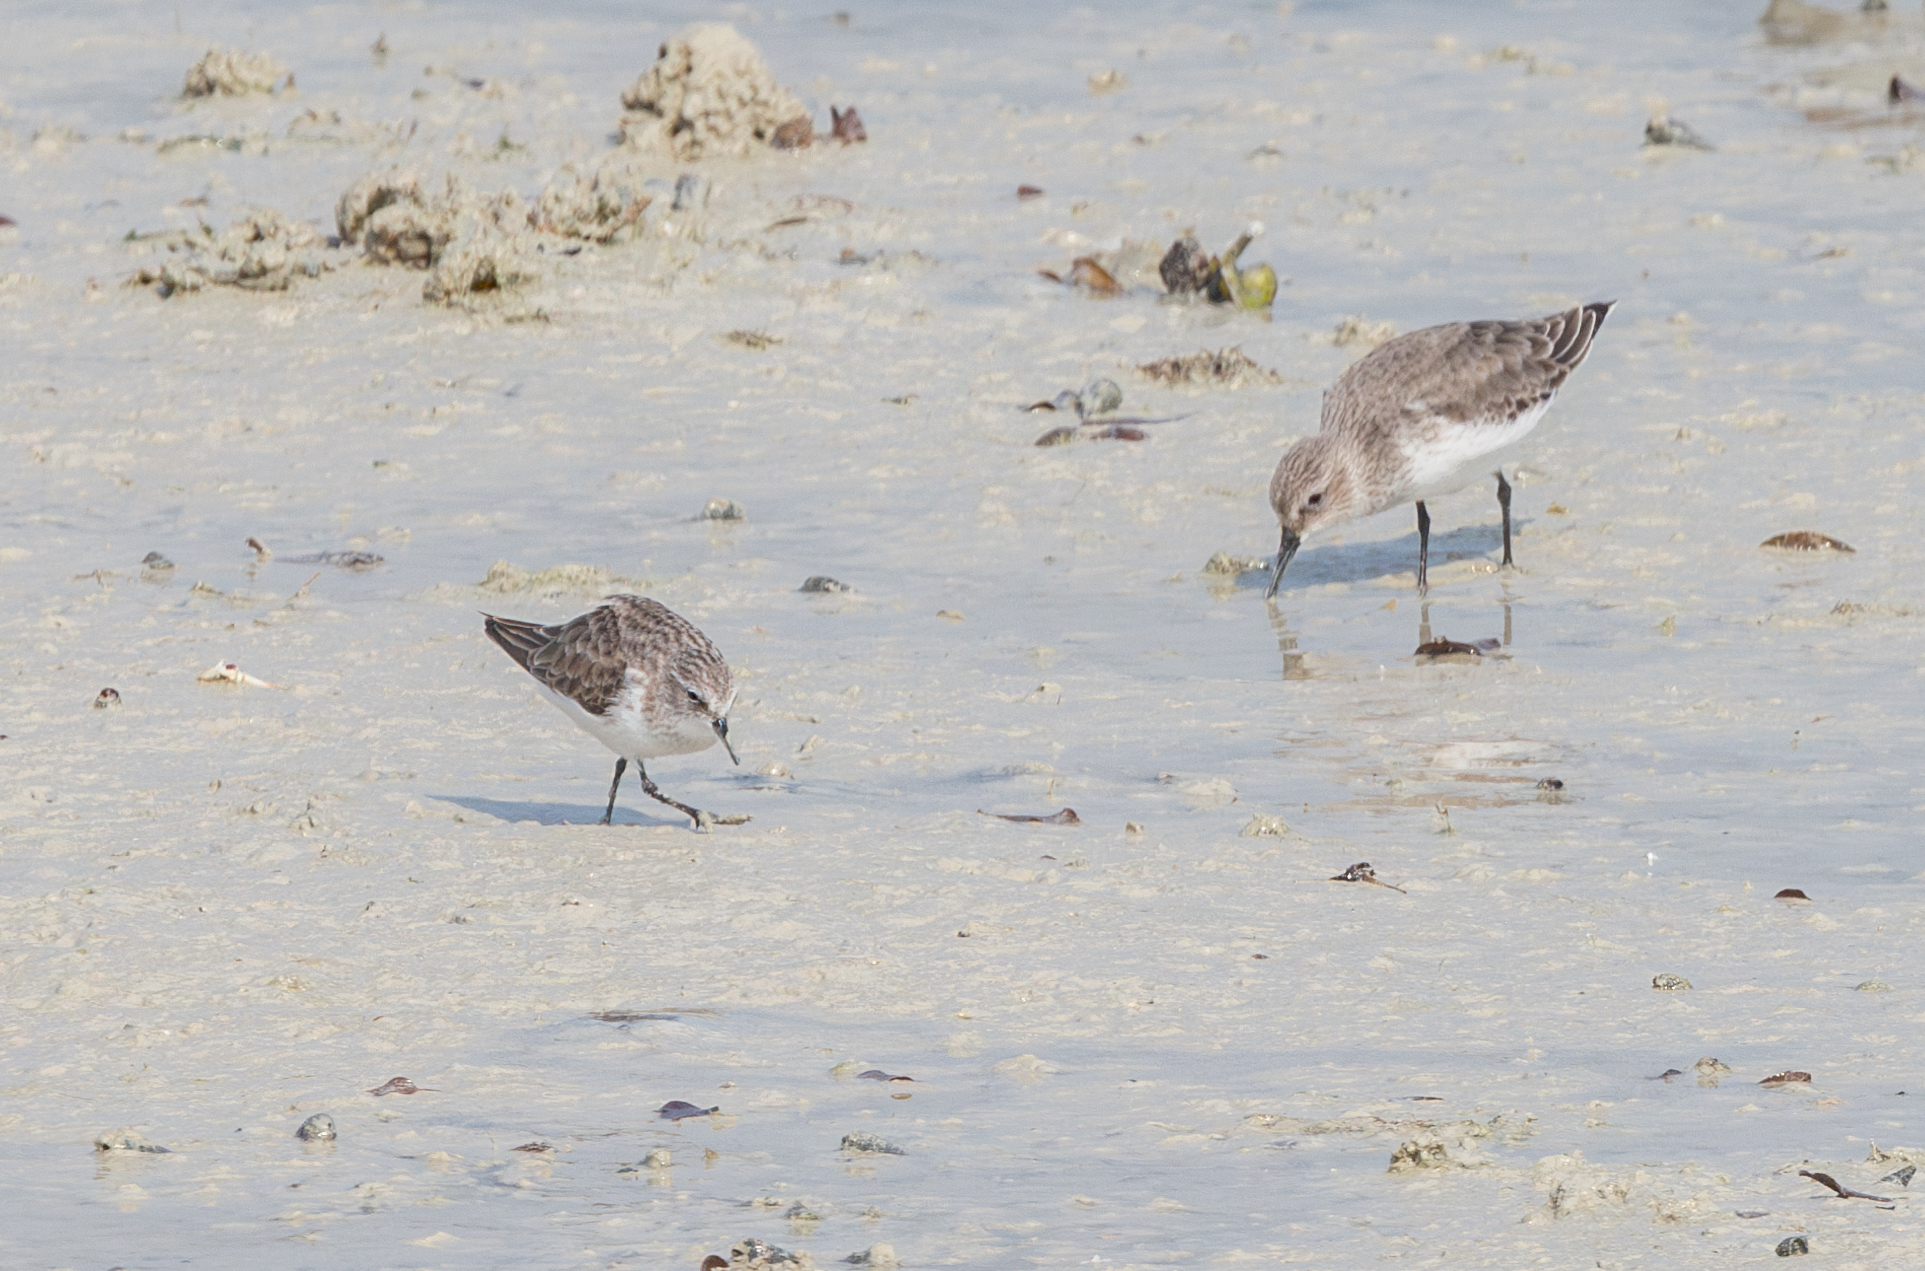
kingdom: Animalia
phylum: Chordata
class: Aves
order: Charadriiformes
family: Scolopacidae
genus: Calidris
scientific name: Calidris minuta
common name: Little stint
